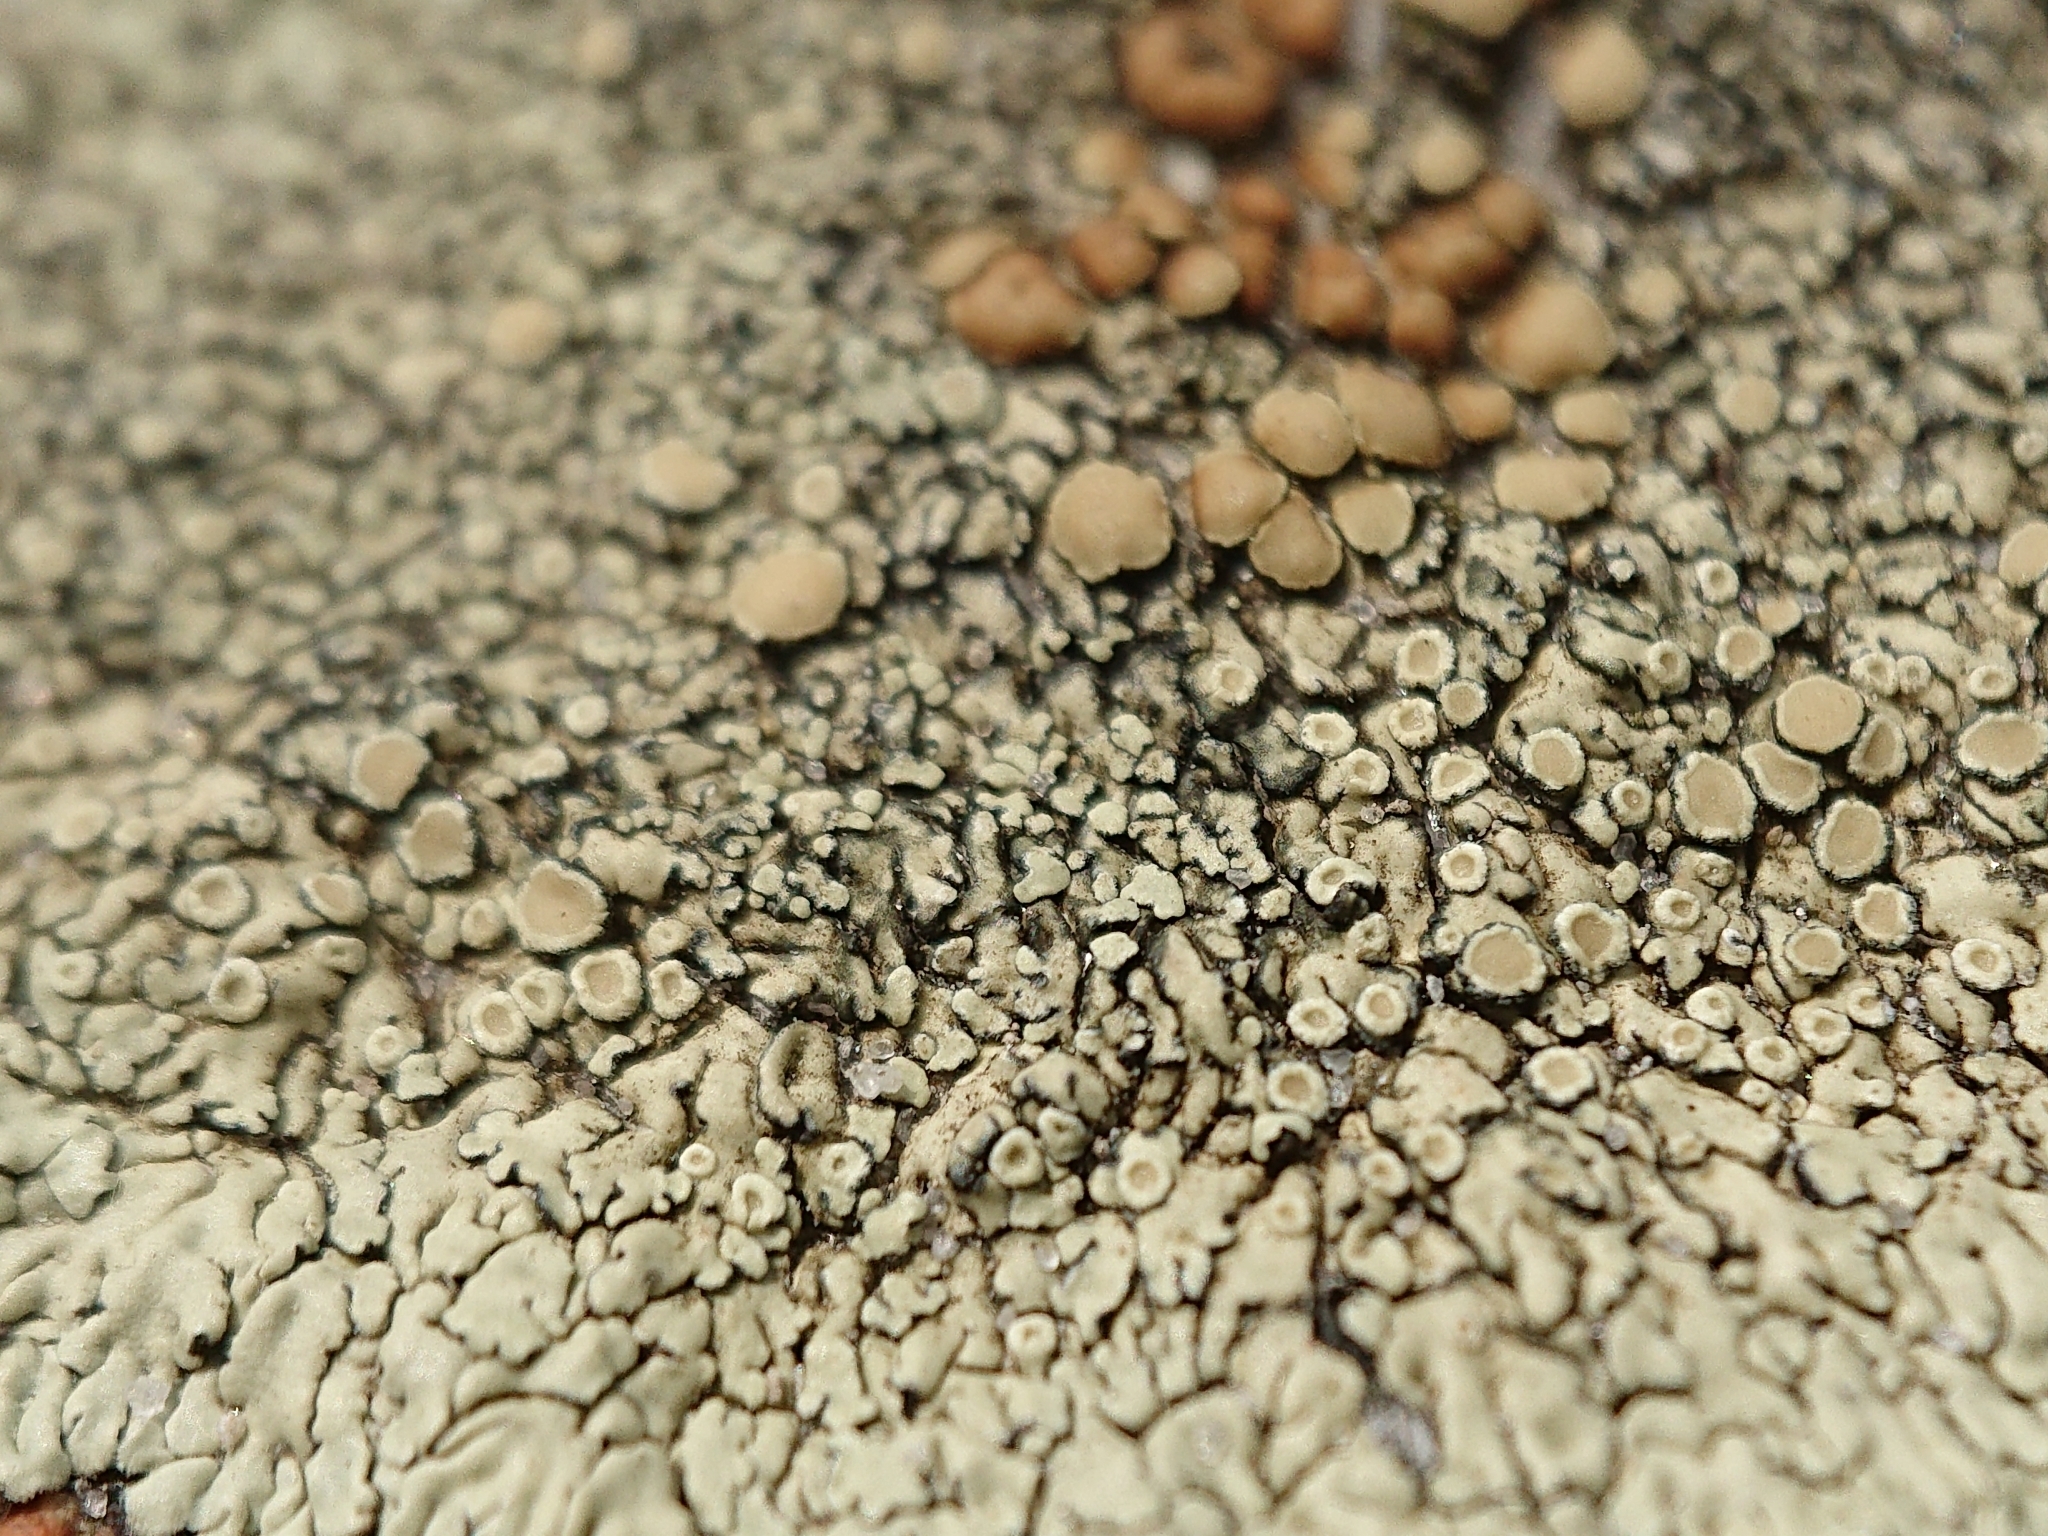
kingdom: Fungi
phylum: Ascomycota
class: Lecanoromycetes
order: Lecanorales
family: Lecanoraceae
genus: Protoparmeliopsis
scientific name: Protoparmeliopsis muralis
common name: Stonewall rim lichen
